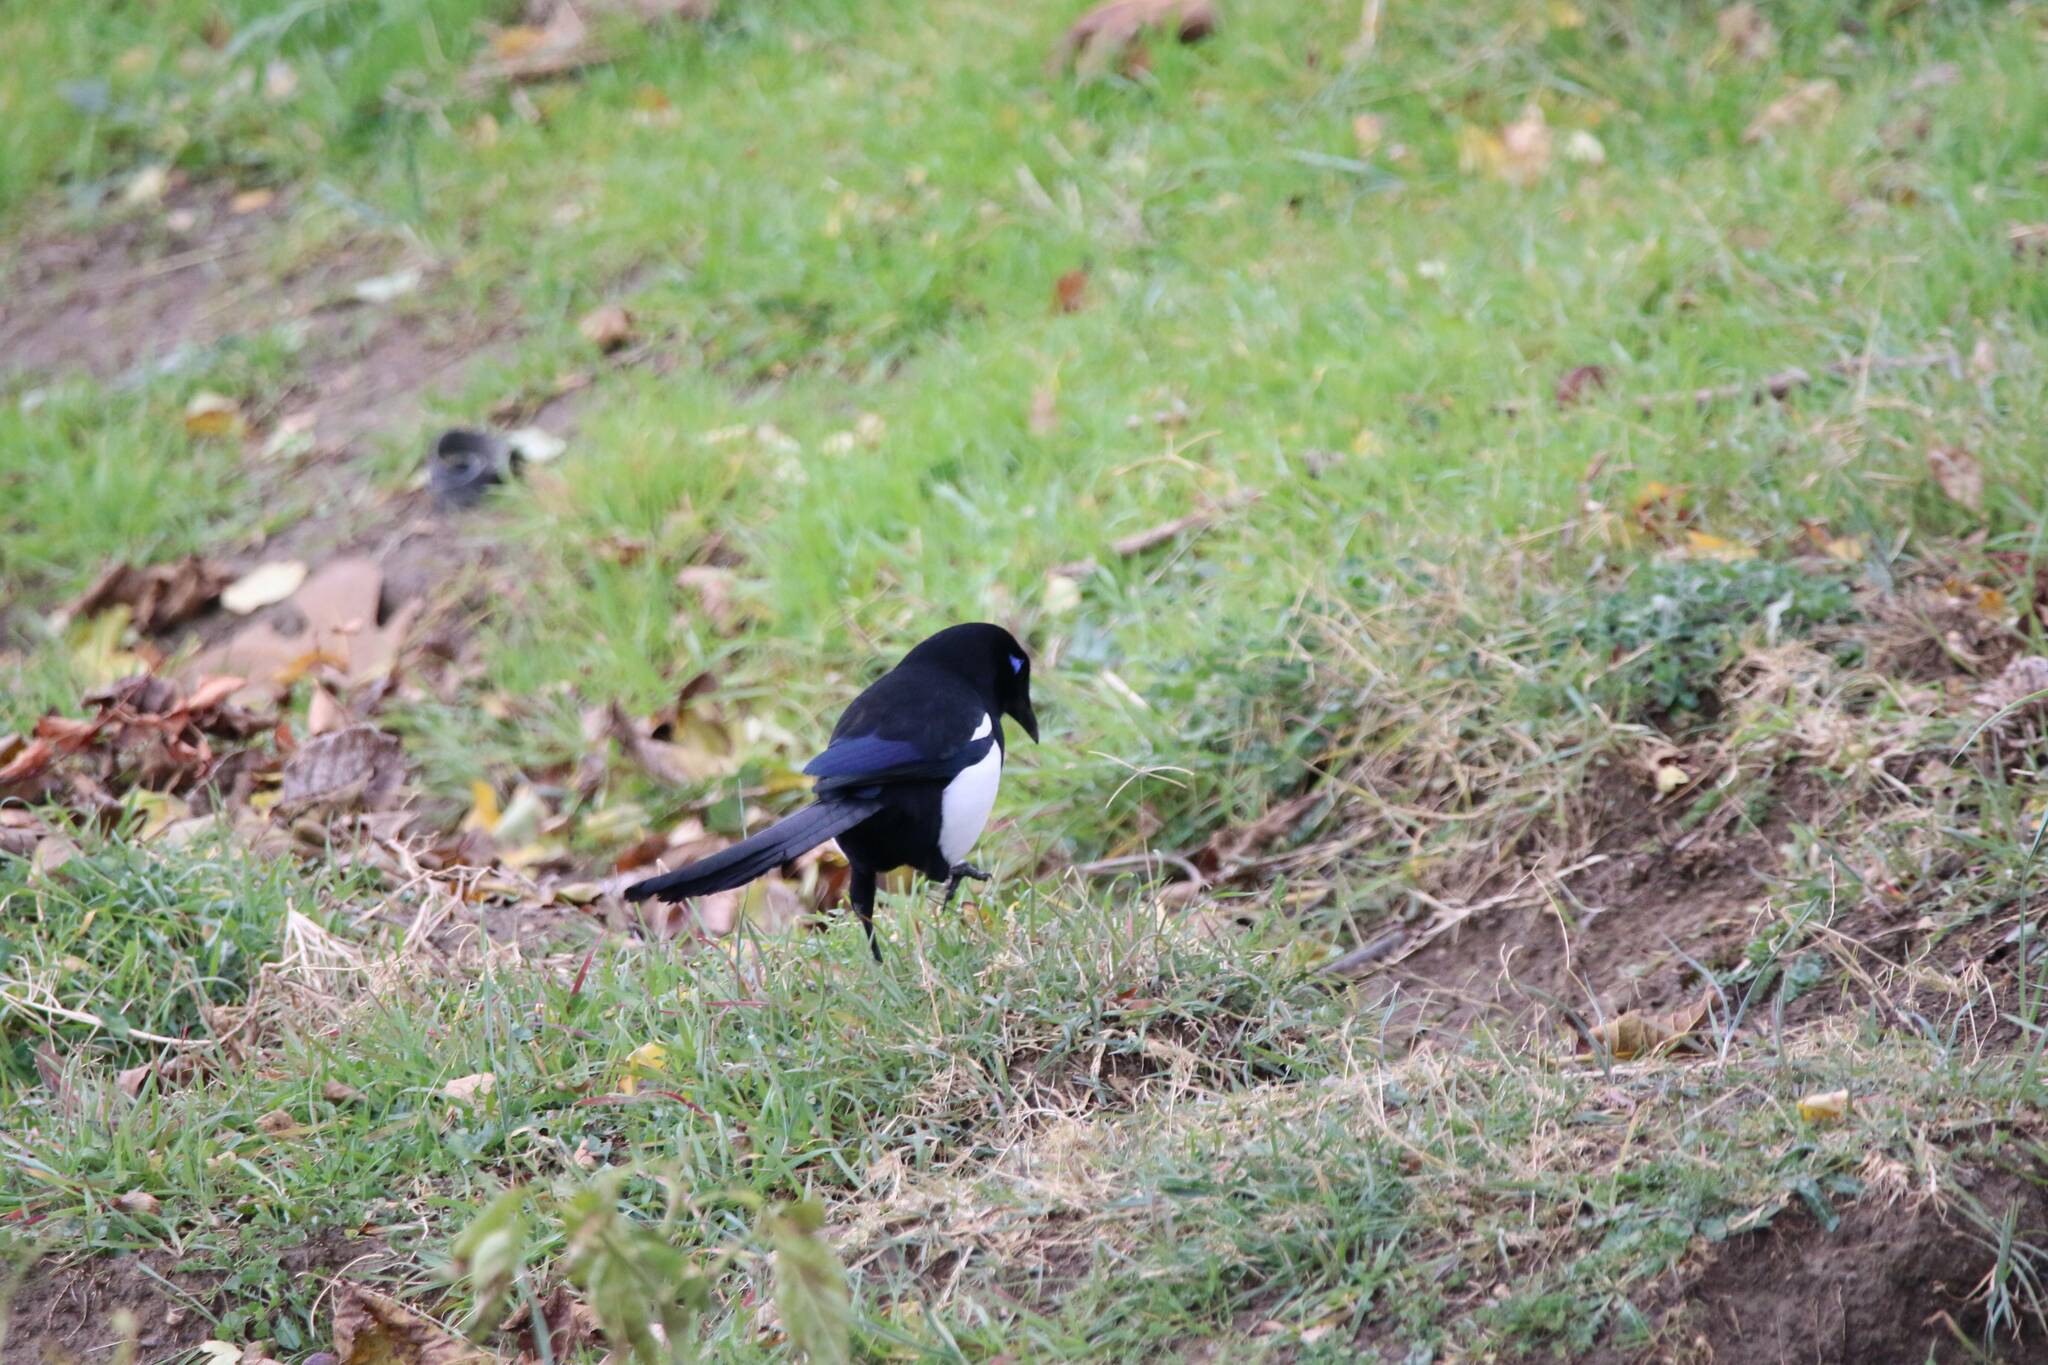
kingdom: Animalia
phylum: Chordata
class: Aves
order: Passeriformes
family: Corvidae
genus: Pica
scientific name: Pica mauritanica
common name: Maghreb magpie
